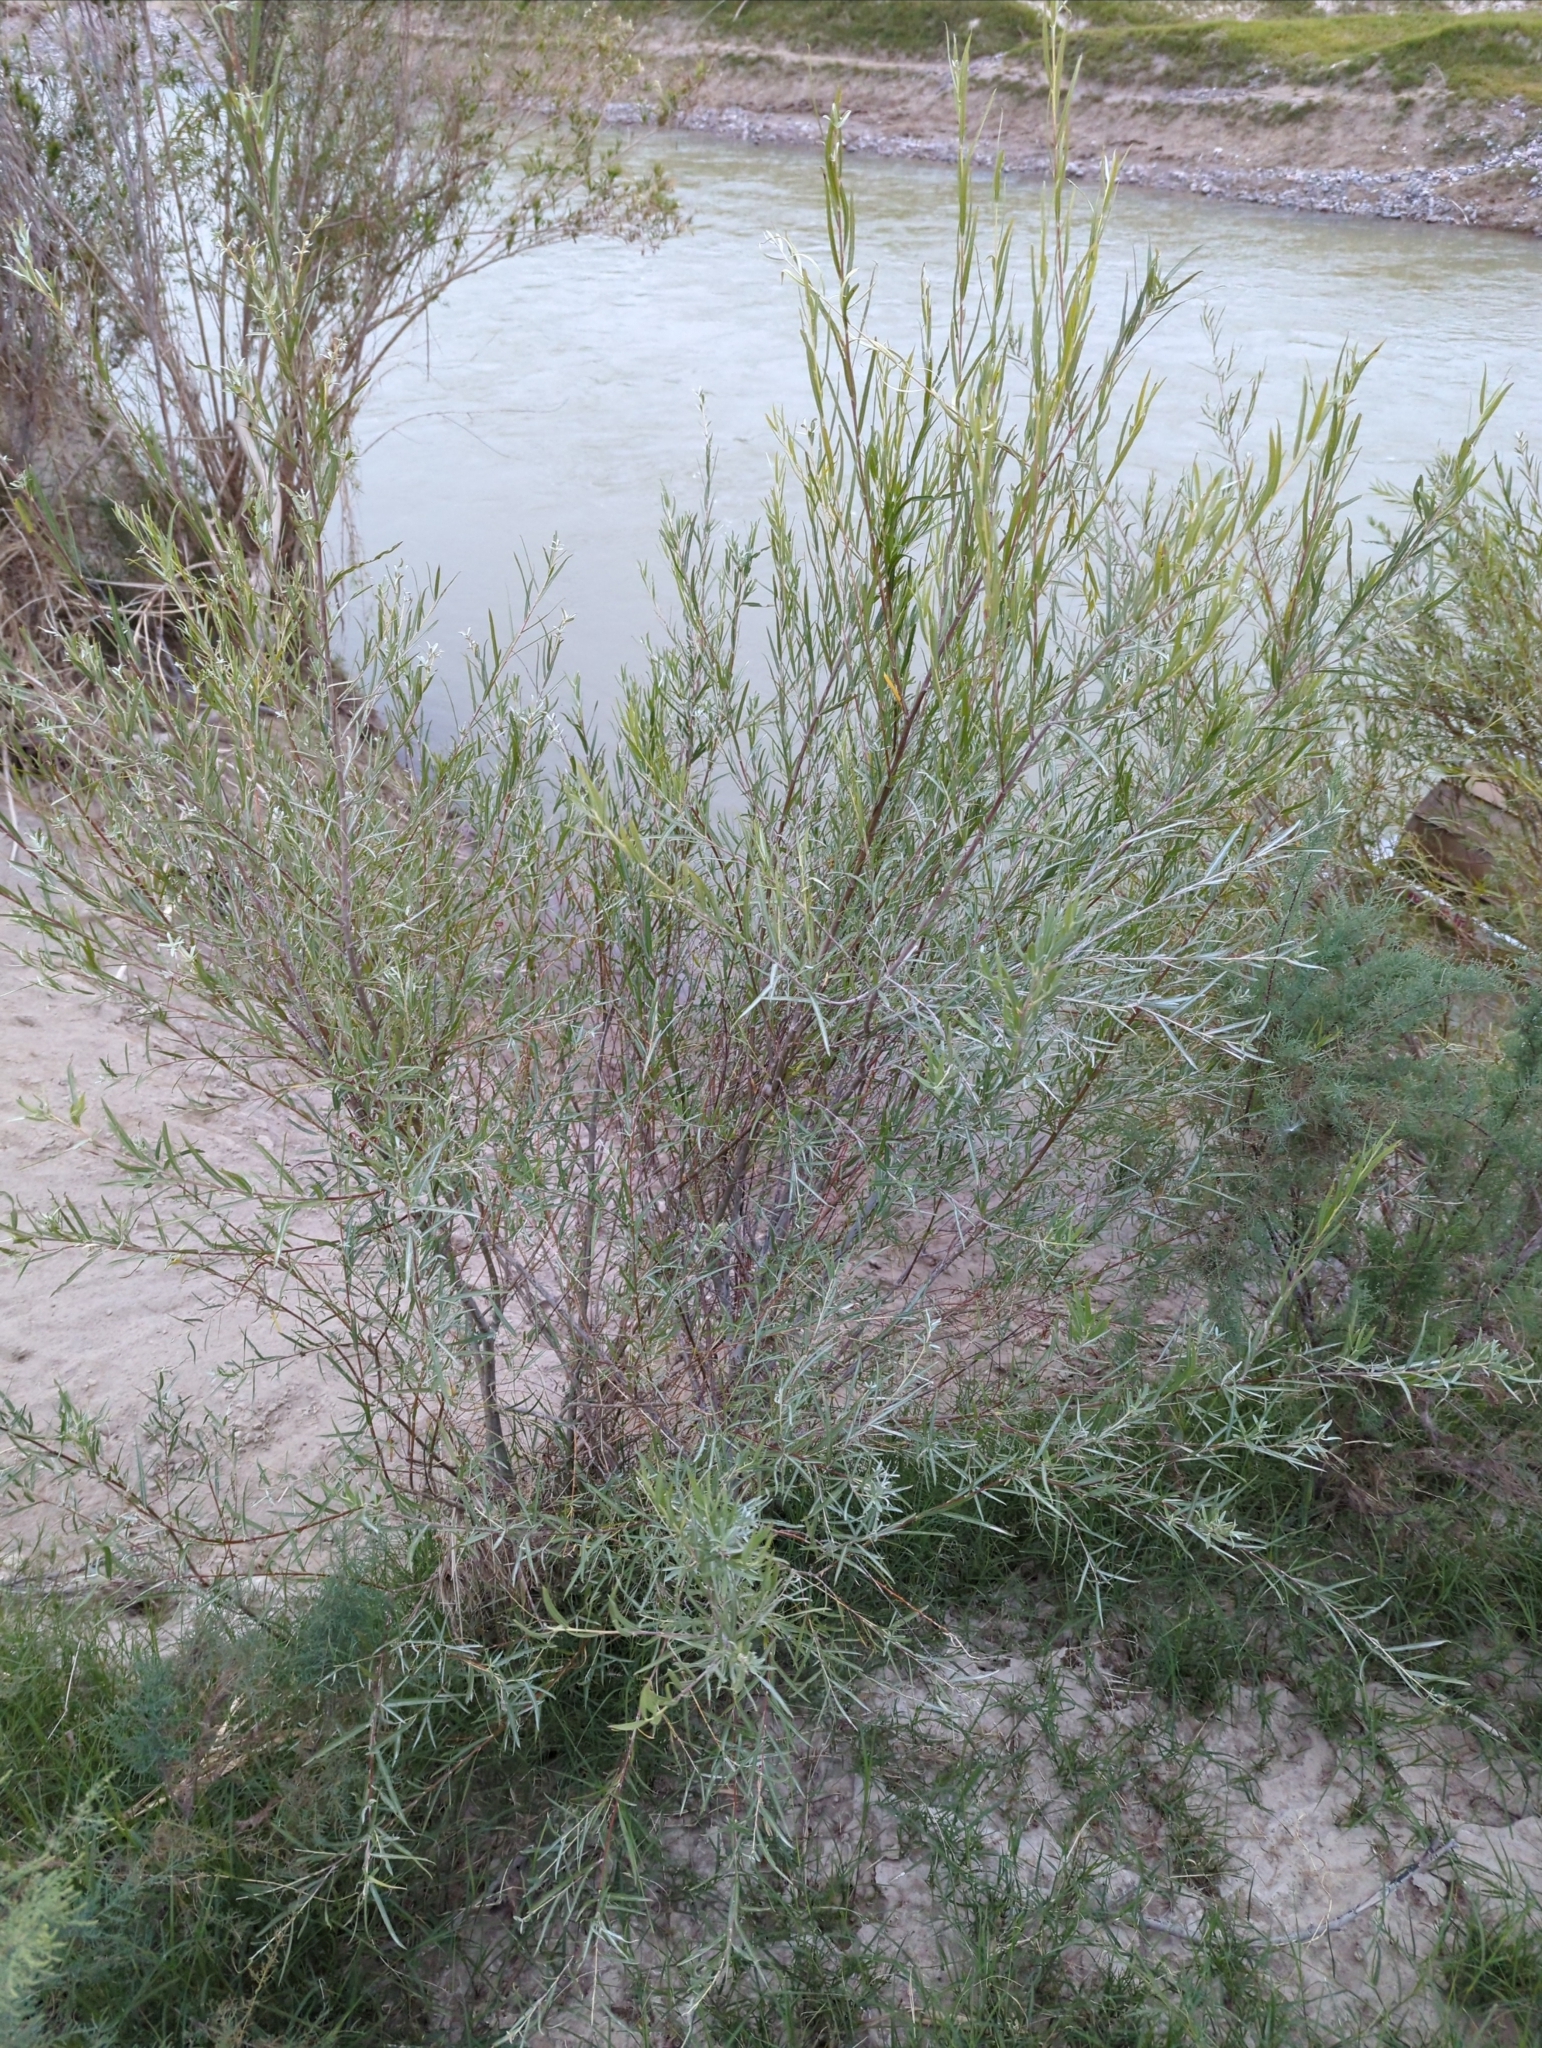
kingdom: Plantae
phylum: Tracheophyta
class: Magnoliopsida
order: Malpighiales
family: Salicaceae
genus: Salix
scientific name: Salix exigua
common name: Coyote willow
